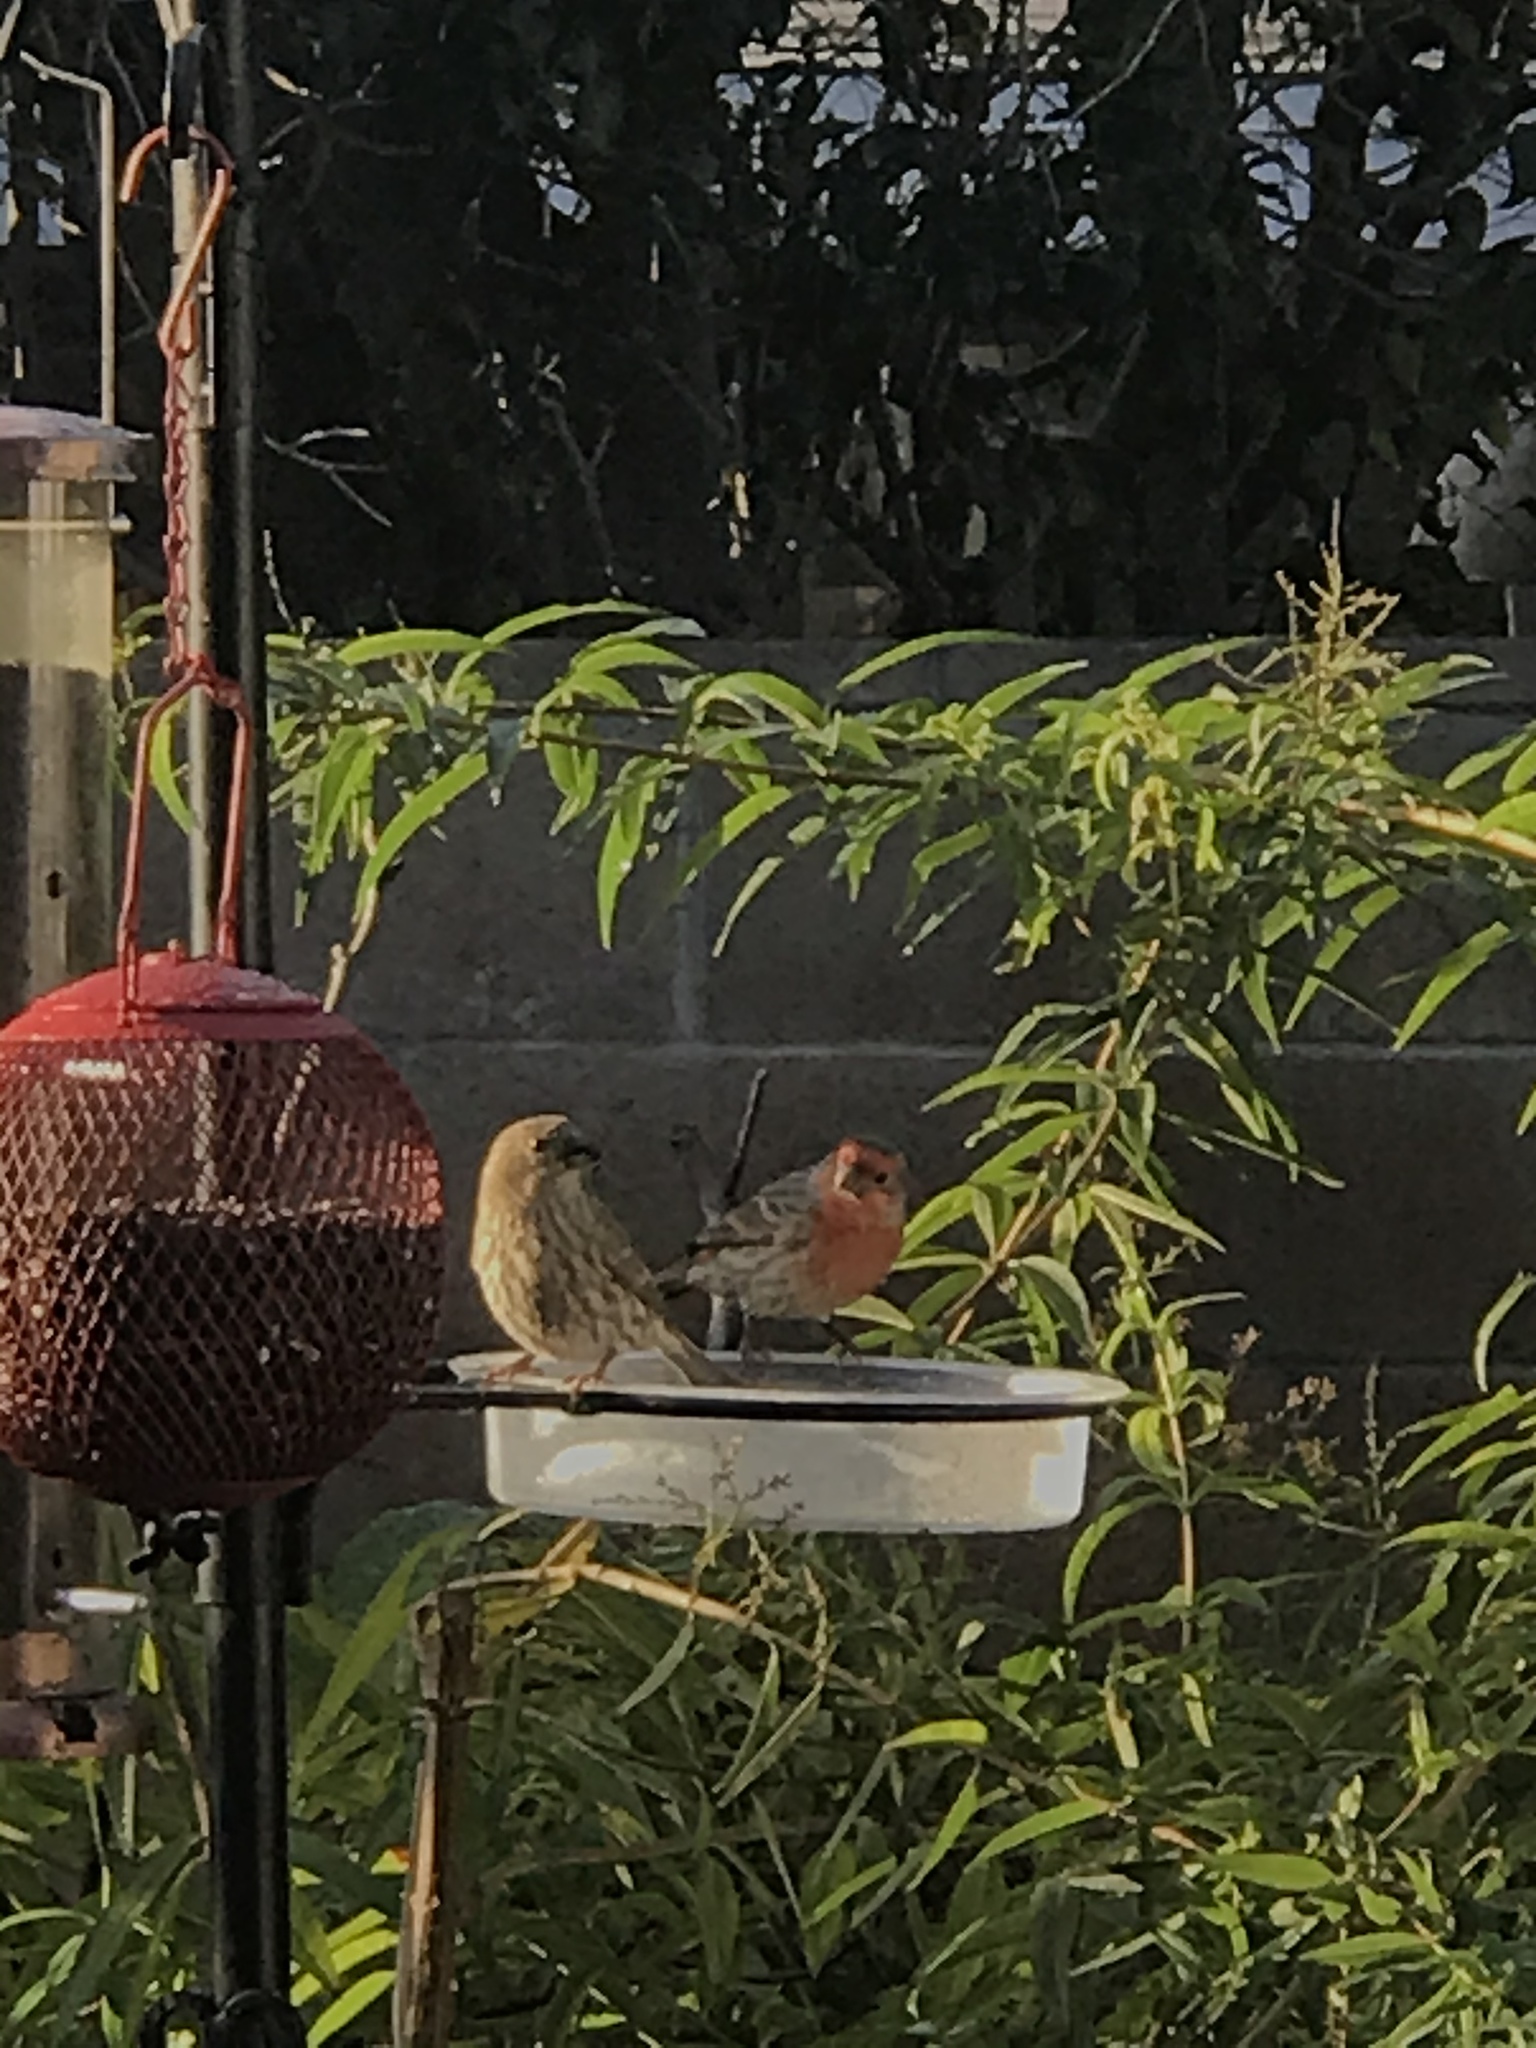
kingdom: Animalia
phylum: Chordata
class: Aves
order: Passeriformes
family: Fringillidae
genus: Haemorhous
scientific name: Haemorhous mexicanus
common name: House finch
